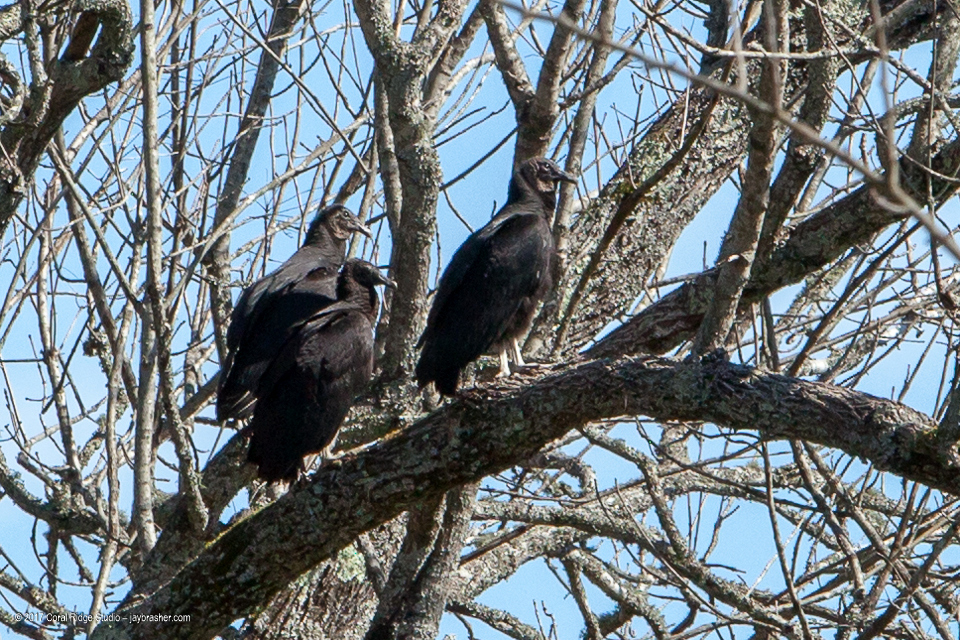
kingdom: Animalia
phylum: Chordata
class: Aves
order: Accipitriformes
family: Cathartidae
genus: Coragyps
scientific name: Coragyps atratus
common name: Black vulture
